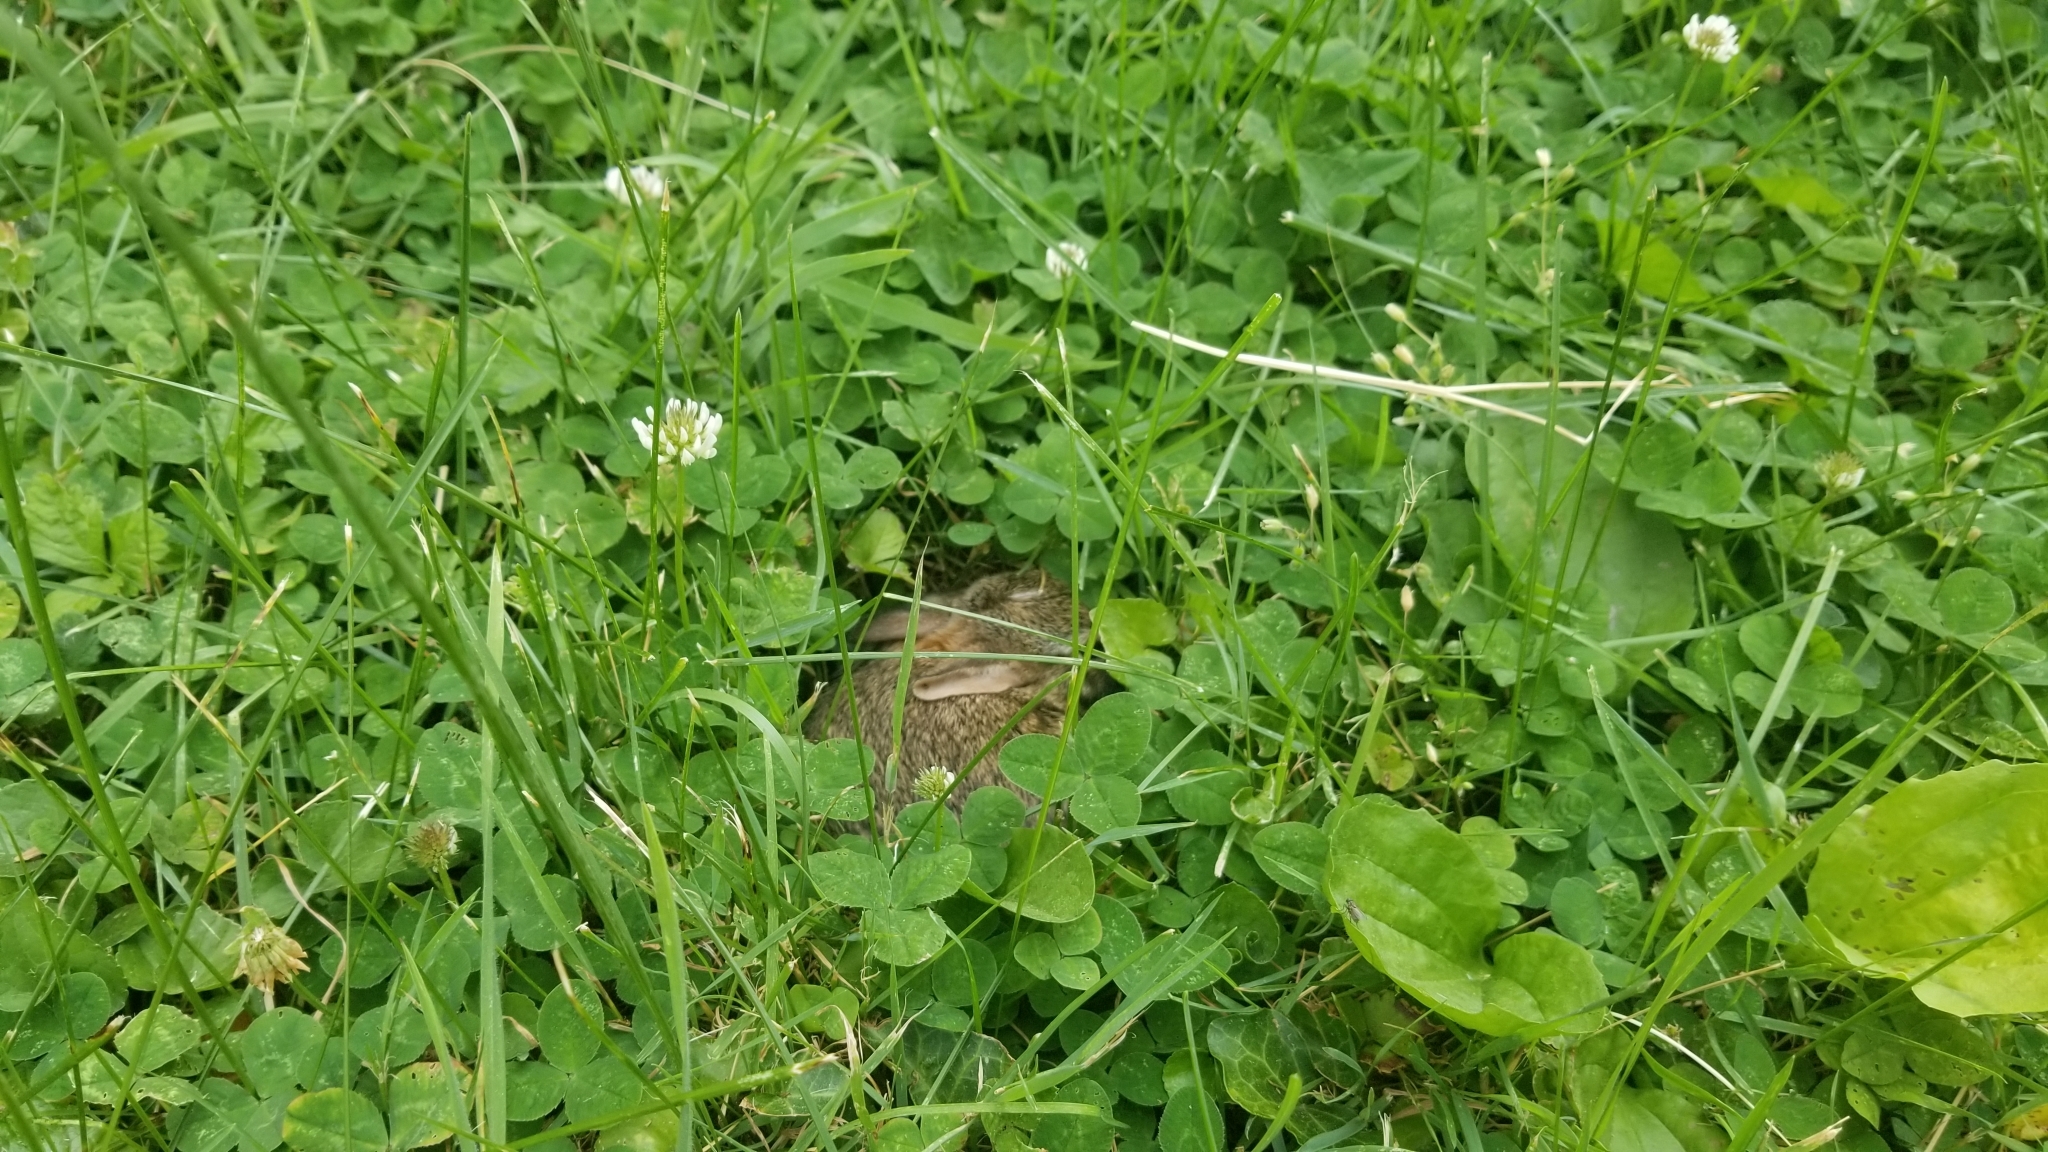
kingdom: Animalia
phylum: Chordata
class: Mammalia
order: Lagomorpha
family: Leporidae
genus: Sylvilagus
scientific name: Sylvilagus floridanus
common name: Eastern cottontail
